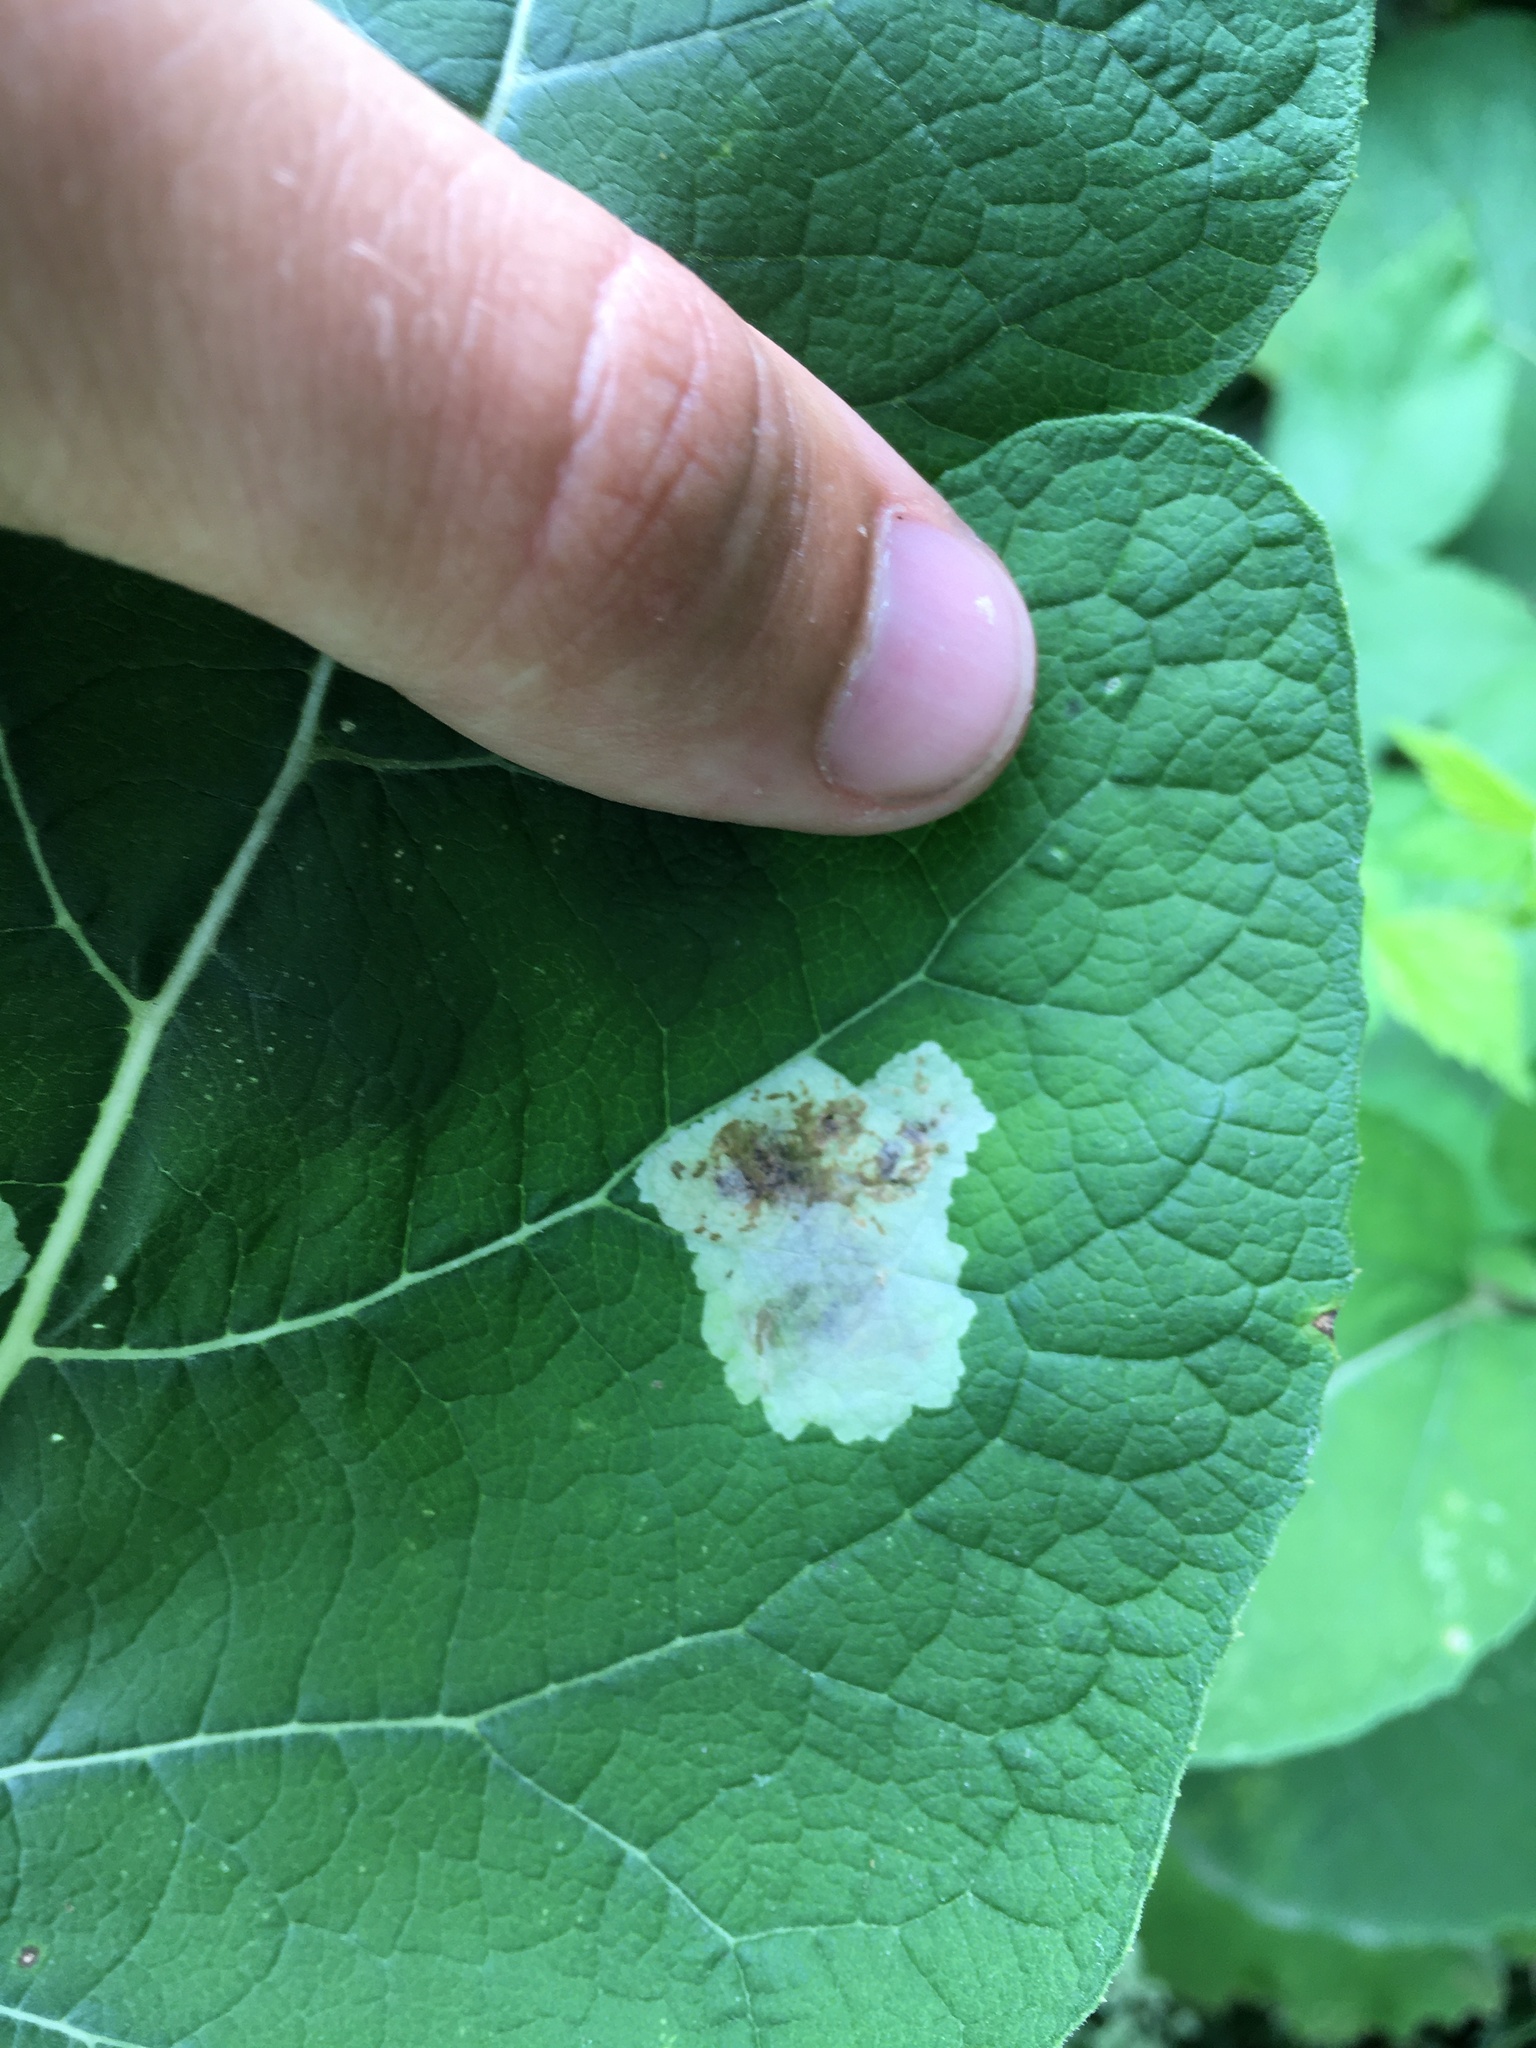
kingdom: Animalia
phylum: Arthropoda
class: Insecta
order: Diptera
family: Agromyzidae
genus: Calycomyza
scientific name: Calycomyza flavinotum
